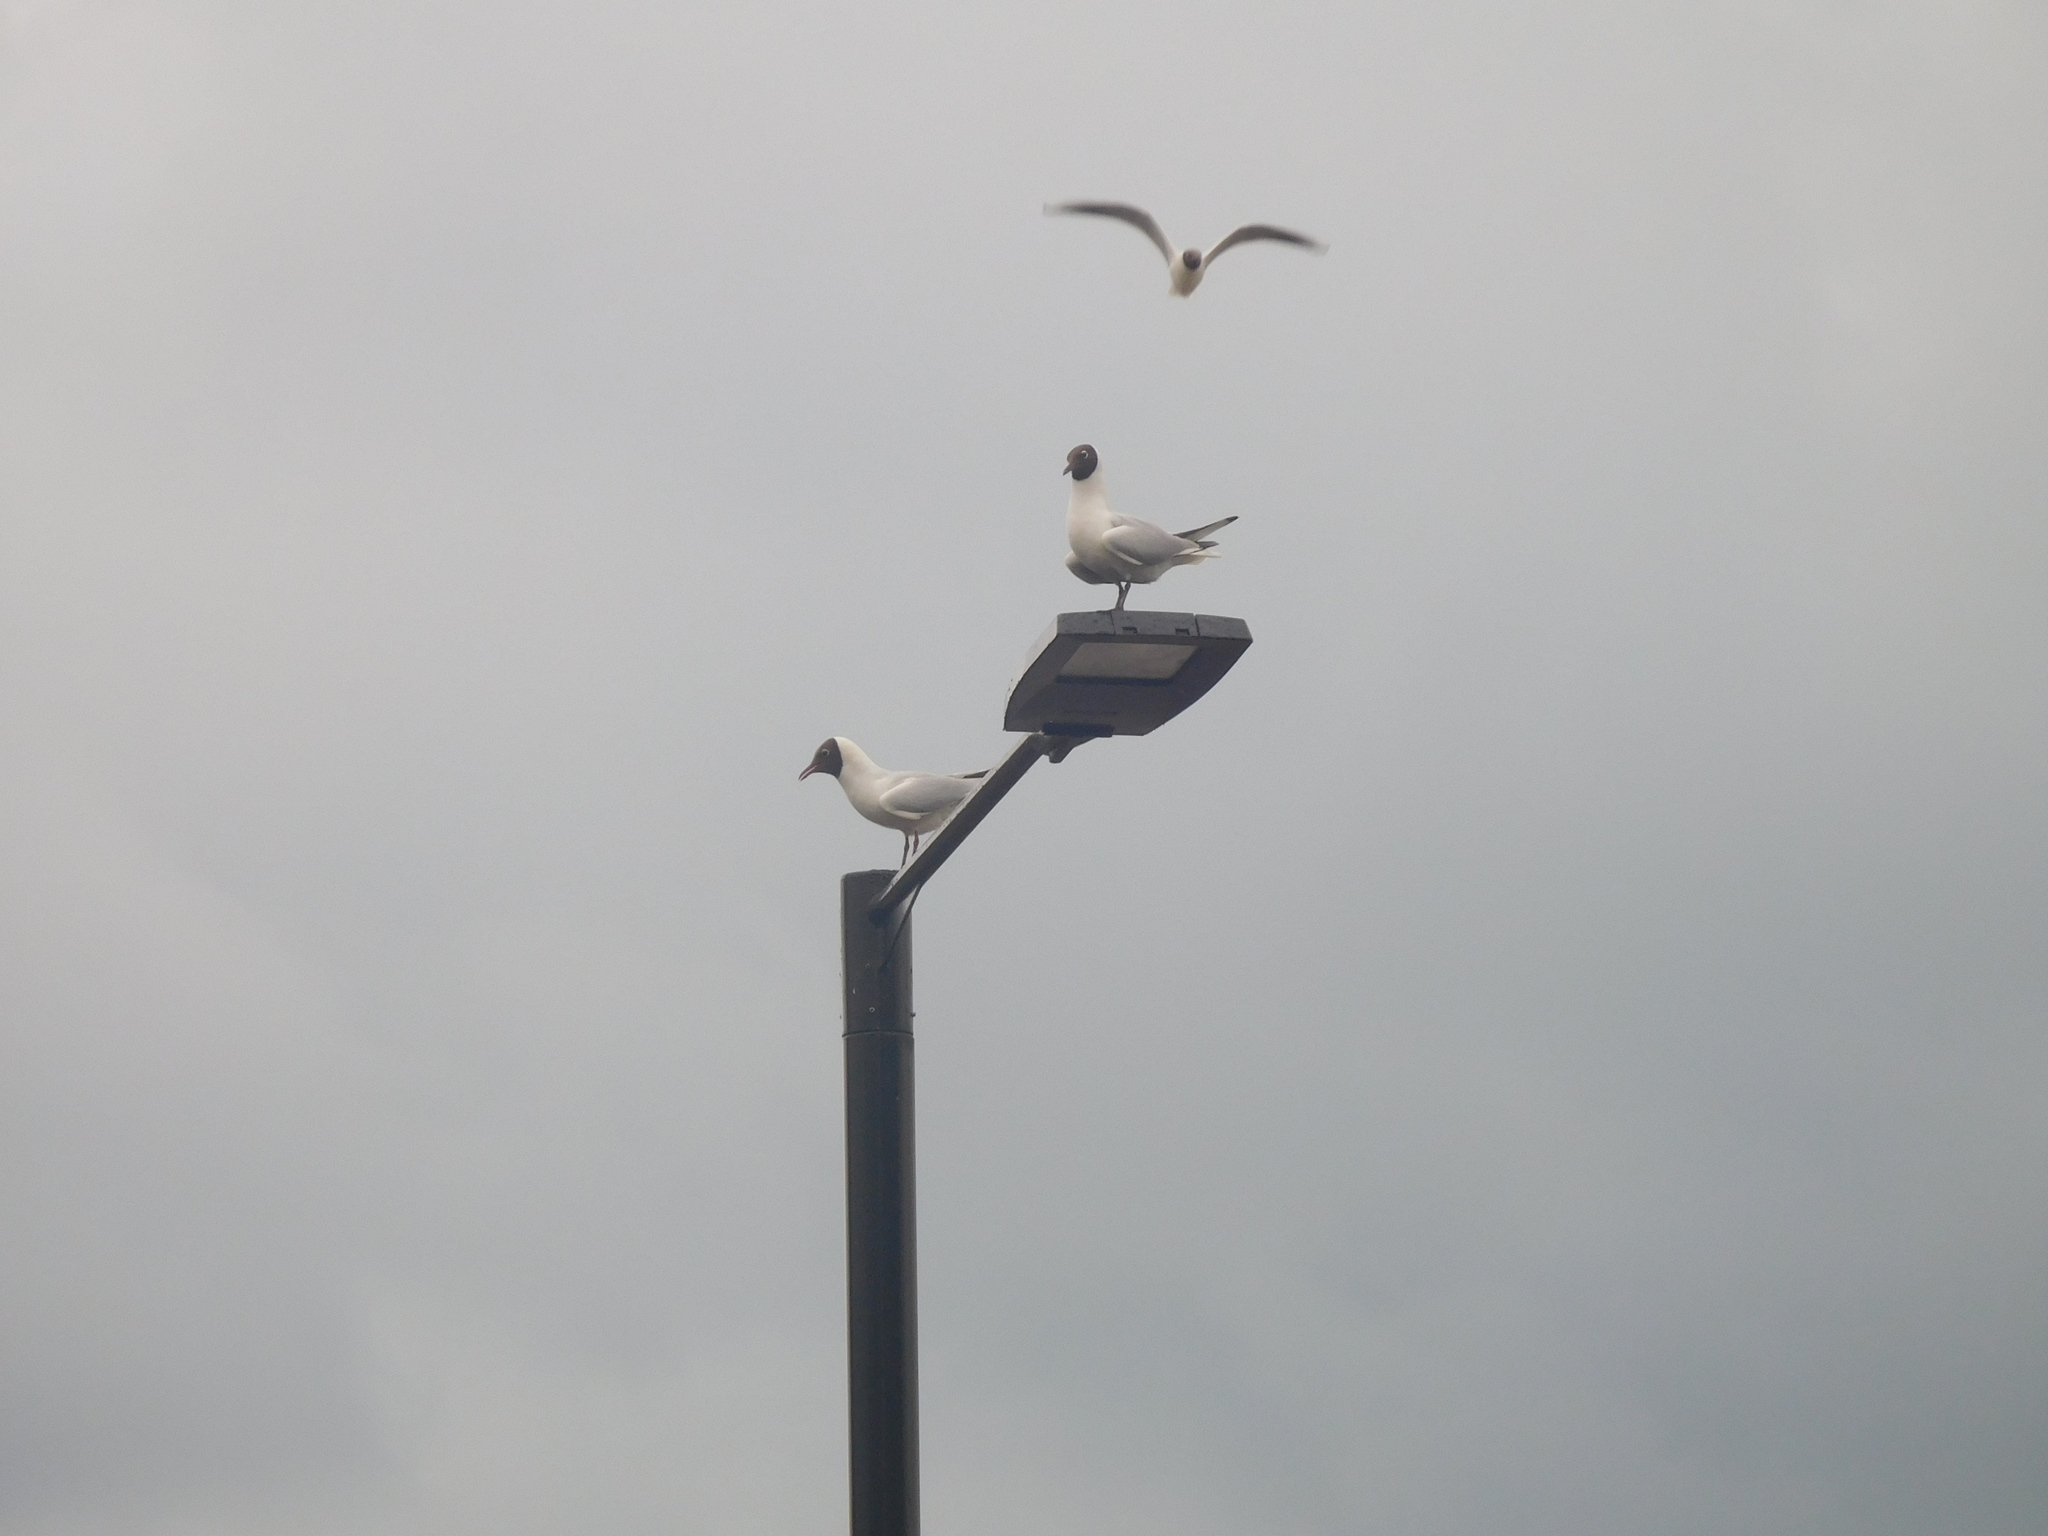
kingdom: Animalia
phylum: Chordata
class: Aves
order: Charadriiformes
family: Laridae
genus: Chroicocephalus
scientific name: Chroicocephalus ridibundus
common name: Black-headed gull
